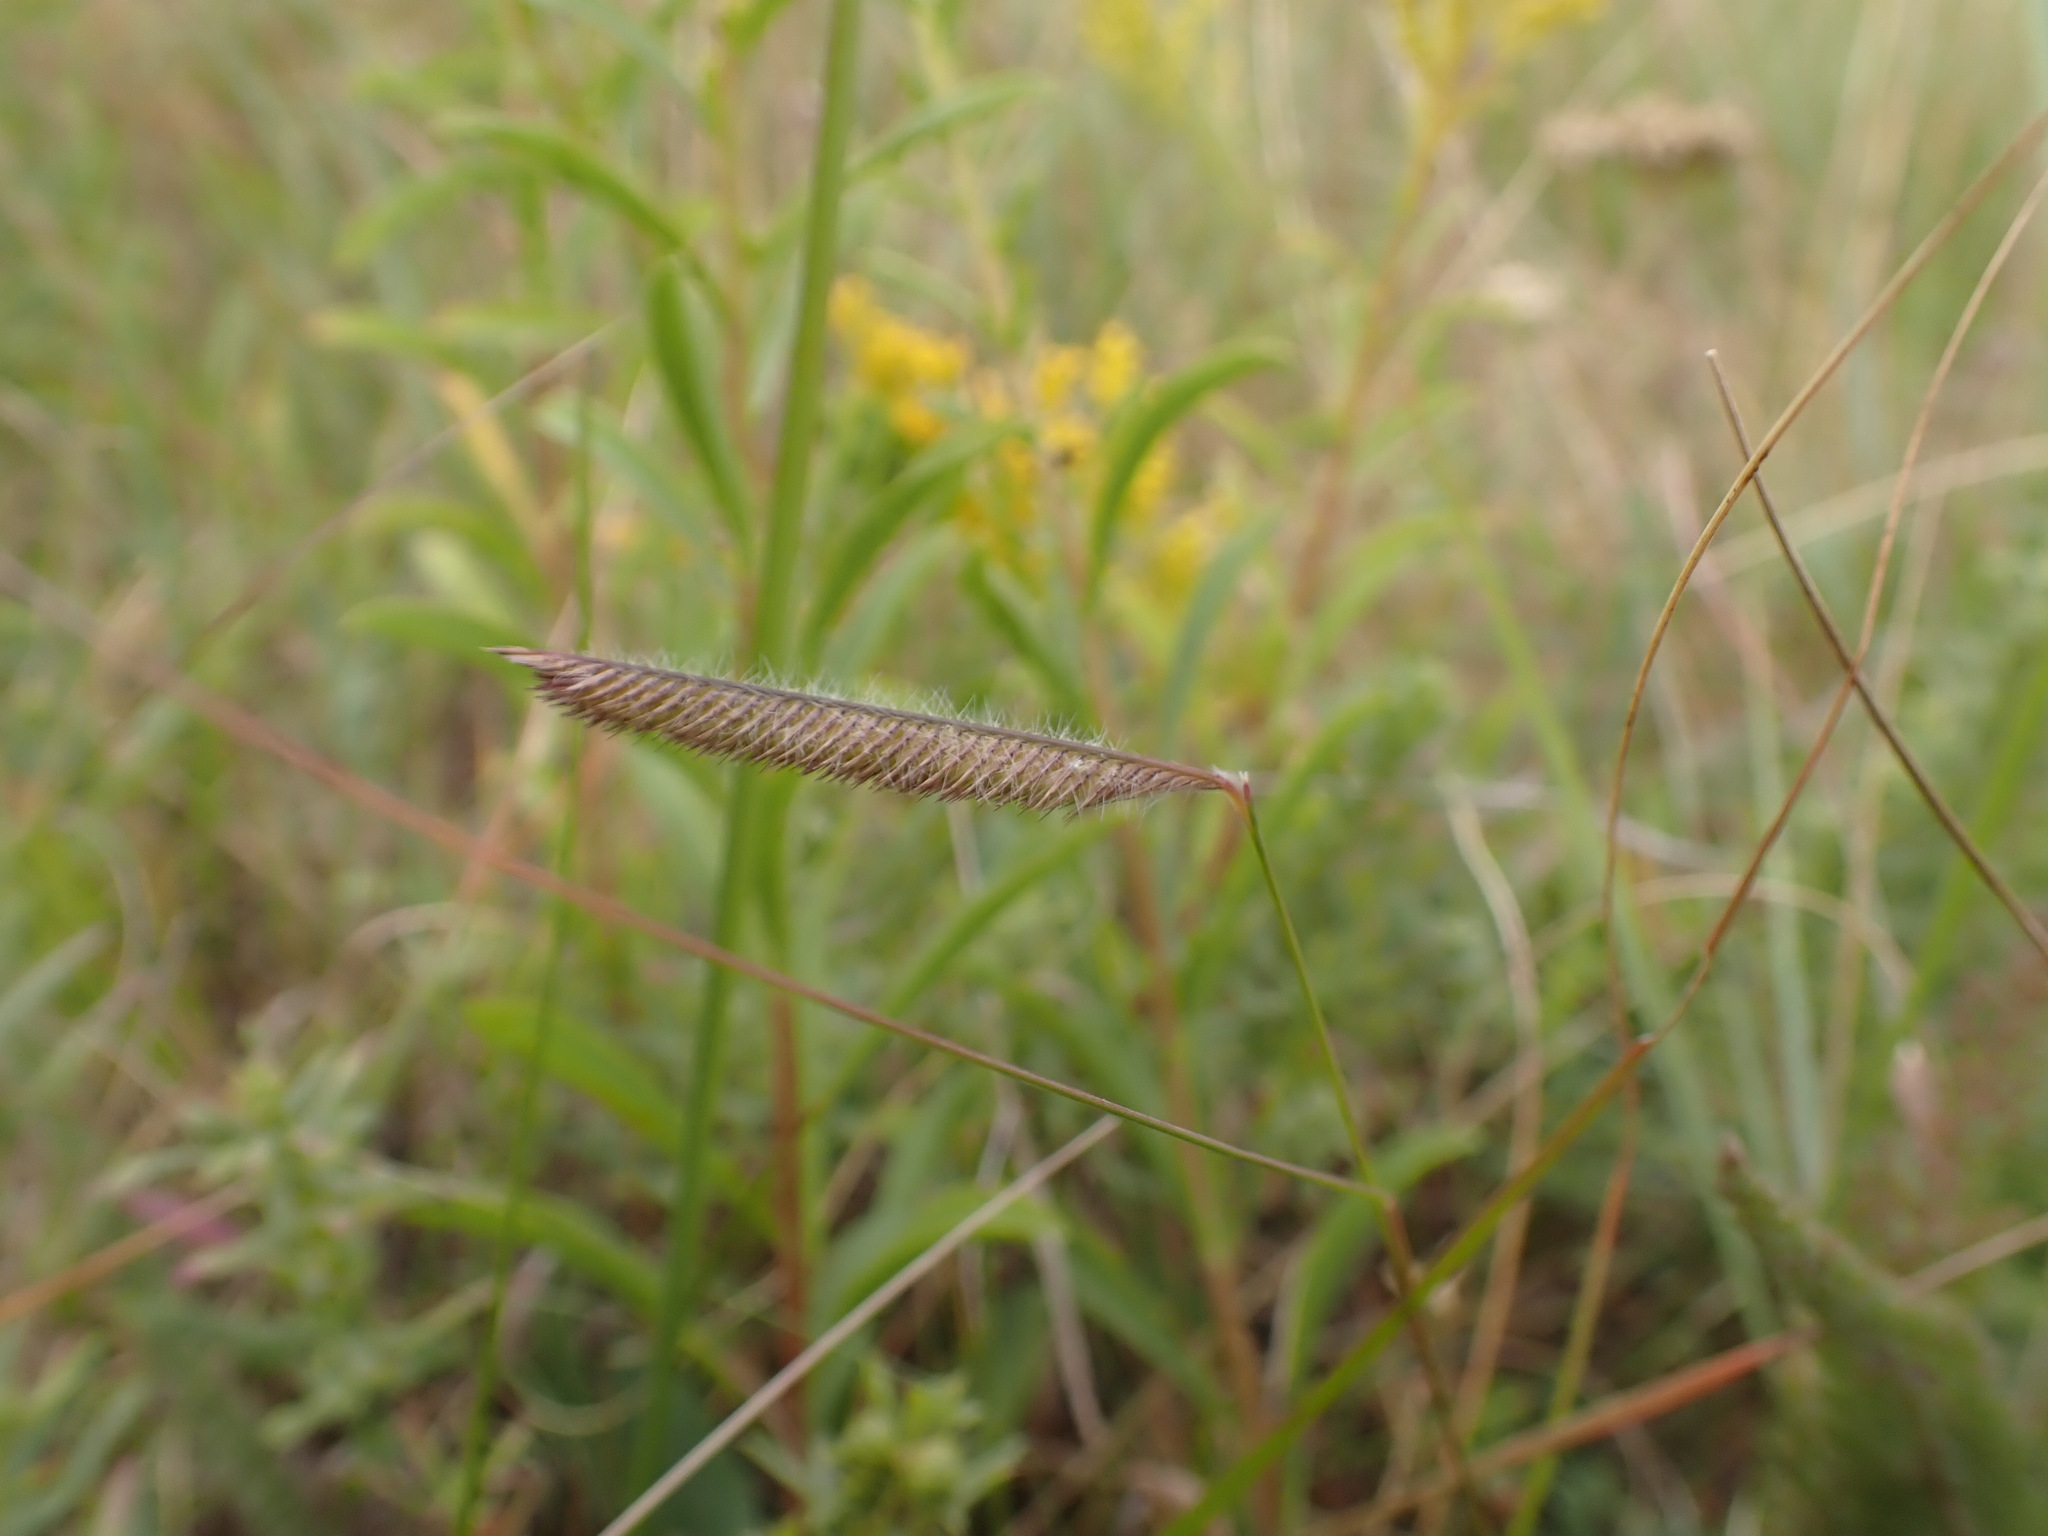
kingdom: Plantae
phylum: Tracheophyta
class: Liliopsida
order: Poales
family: Poaceae
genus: Bouteloua
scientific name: Bouteloua gracilis
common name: Blue grama
